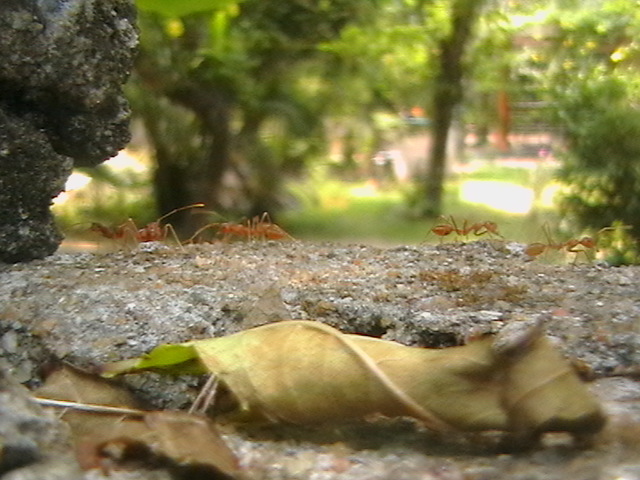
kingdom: Animalia
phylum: Arthropoda
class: Insecta
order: Hymenoptera
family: Formicidae
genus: Oecophylla
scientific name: Oecophylla smaragdina
